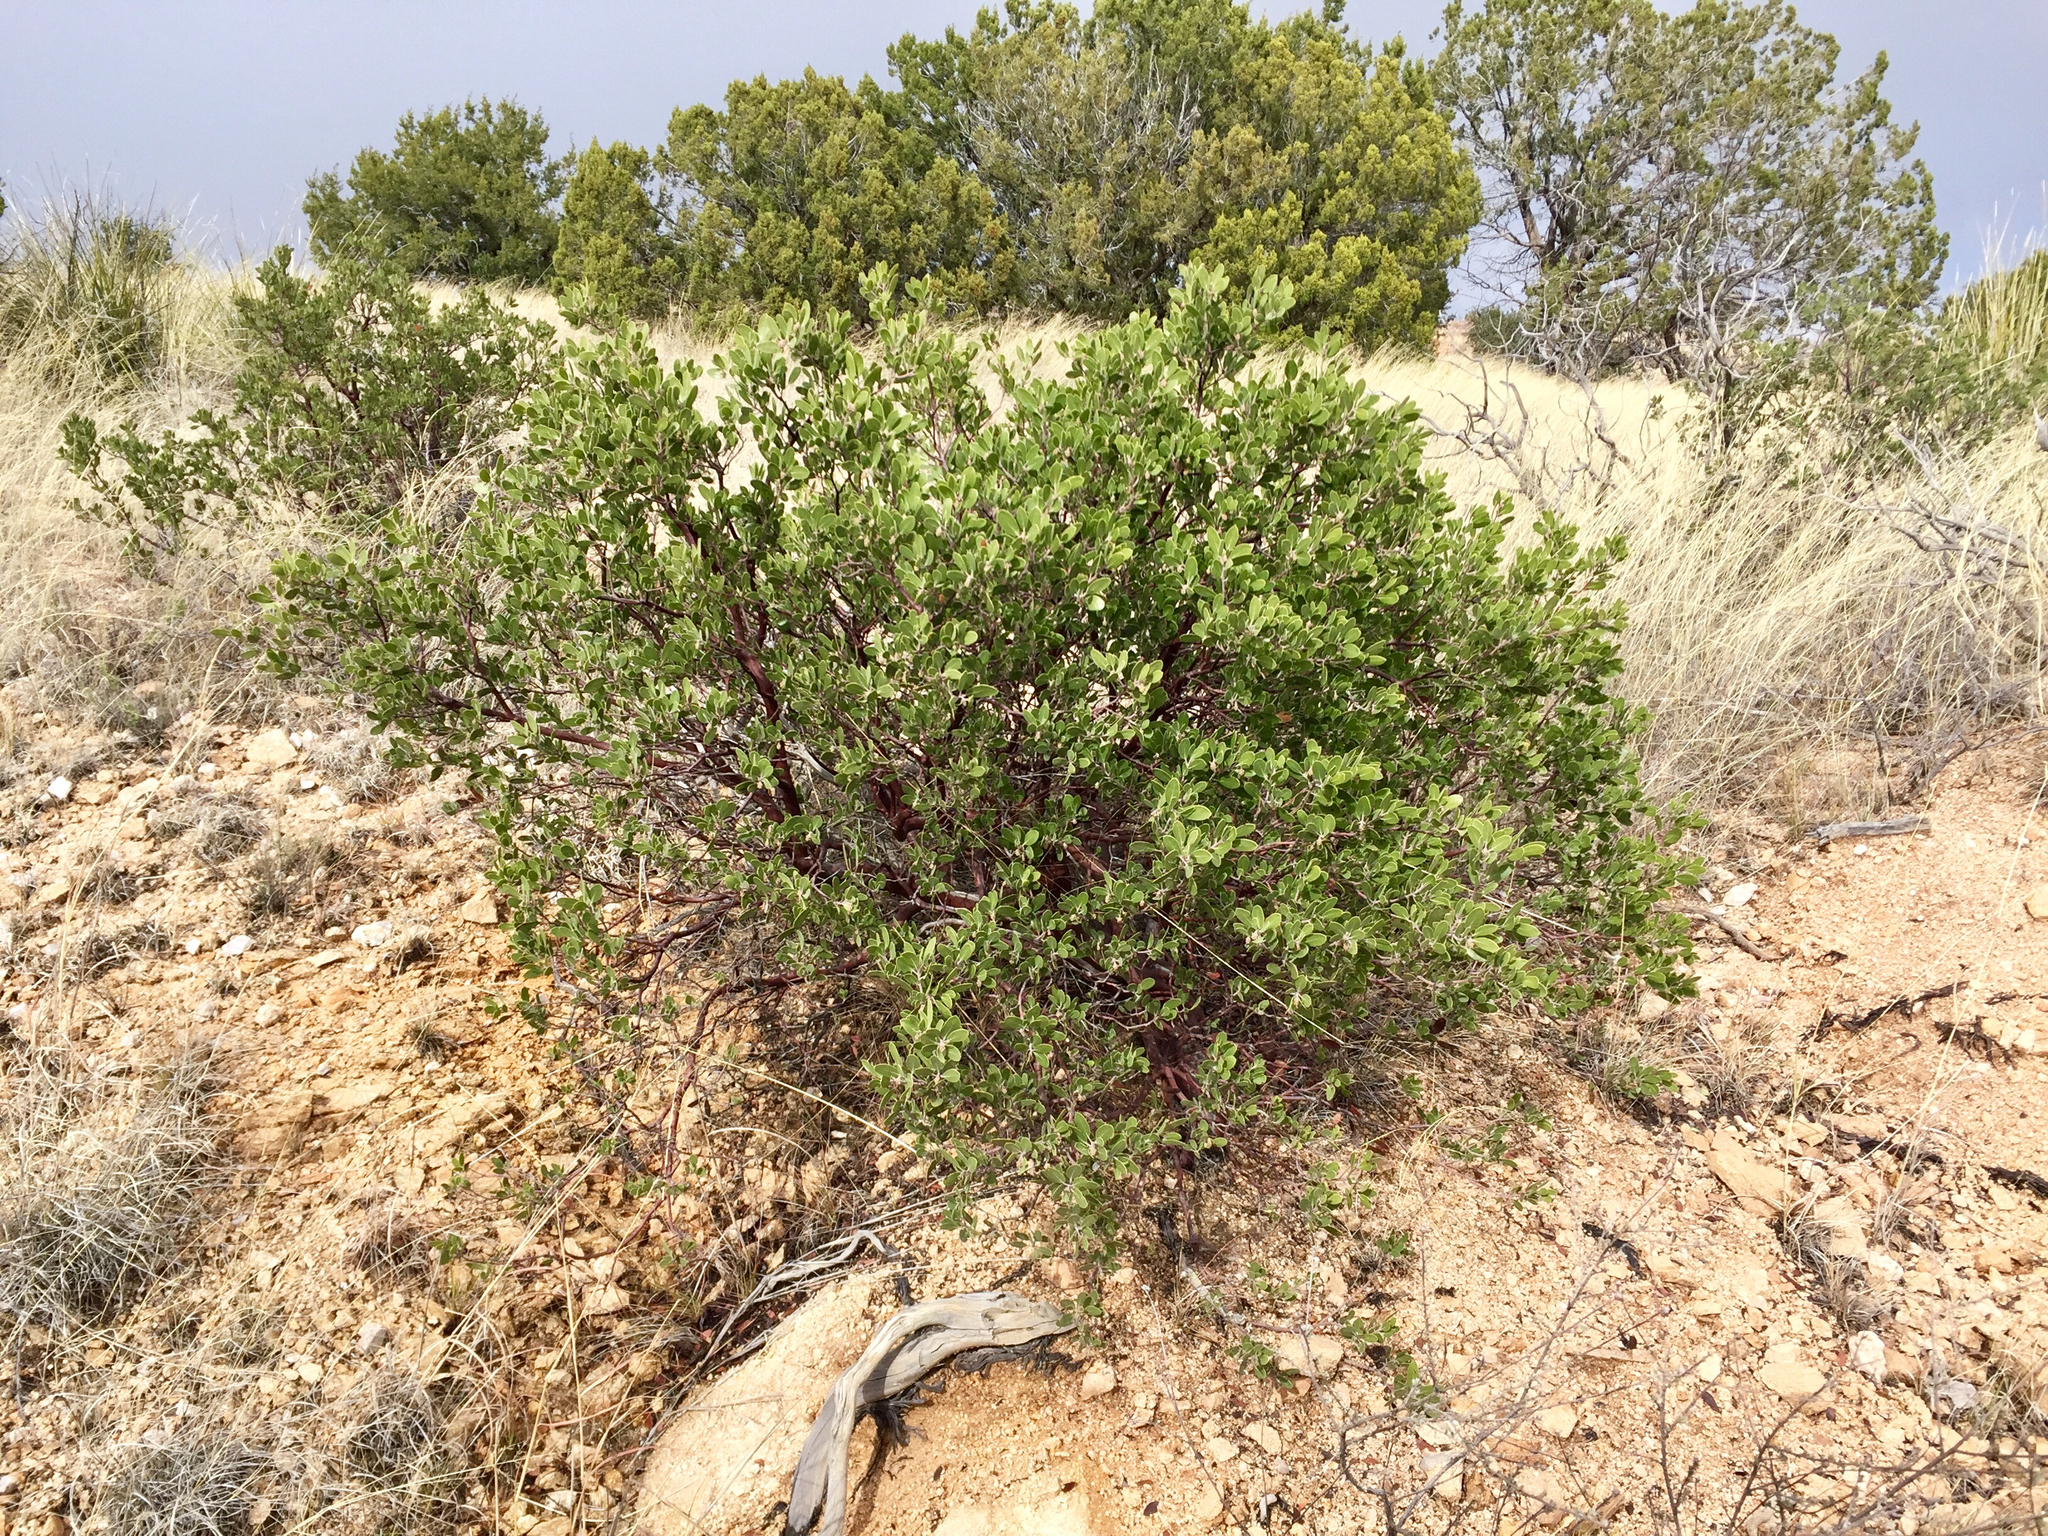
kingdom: Plantae
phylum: Tracheophyta
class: Magnoliopsida
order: Ericales
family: Ericaceae
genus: Arctostaphylos
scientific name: Arctostaphylos pungens
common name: Mexican manzanita
